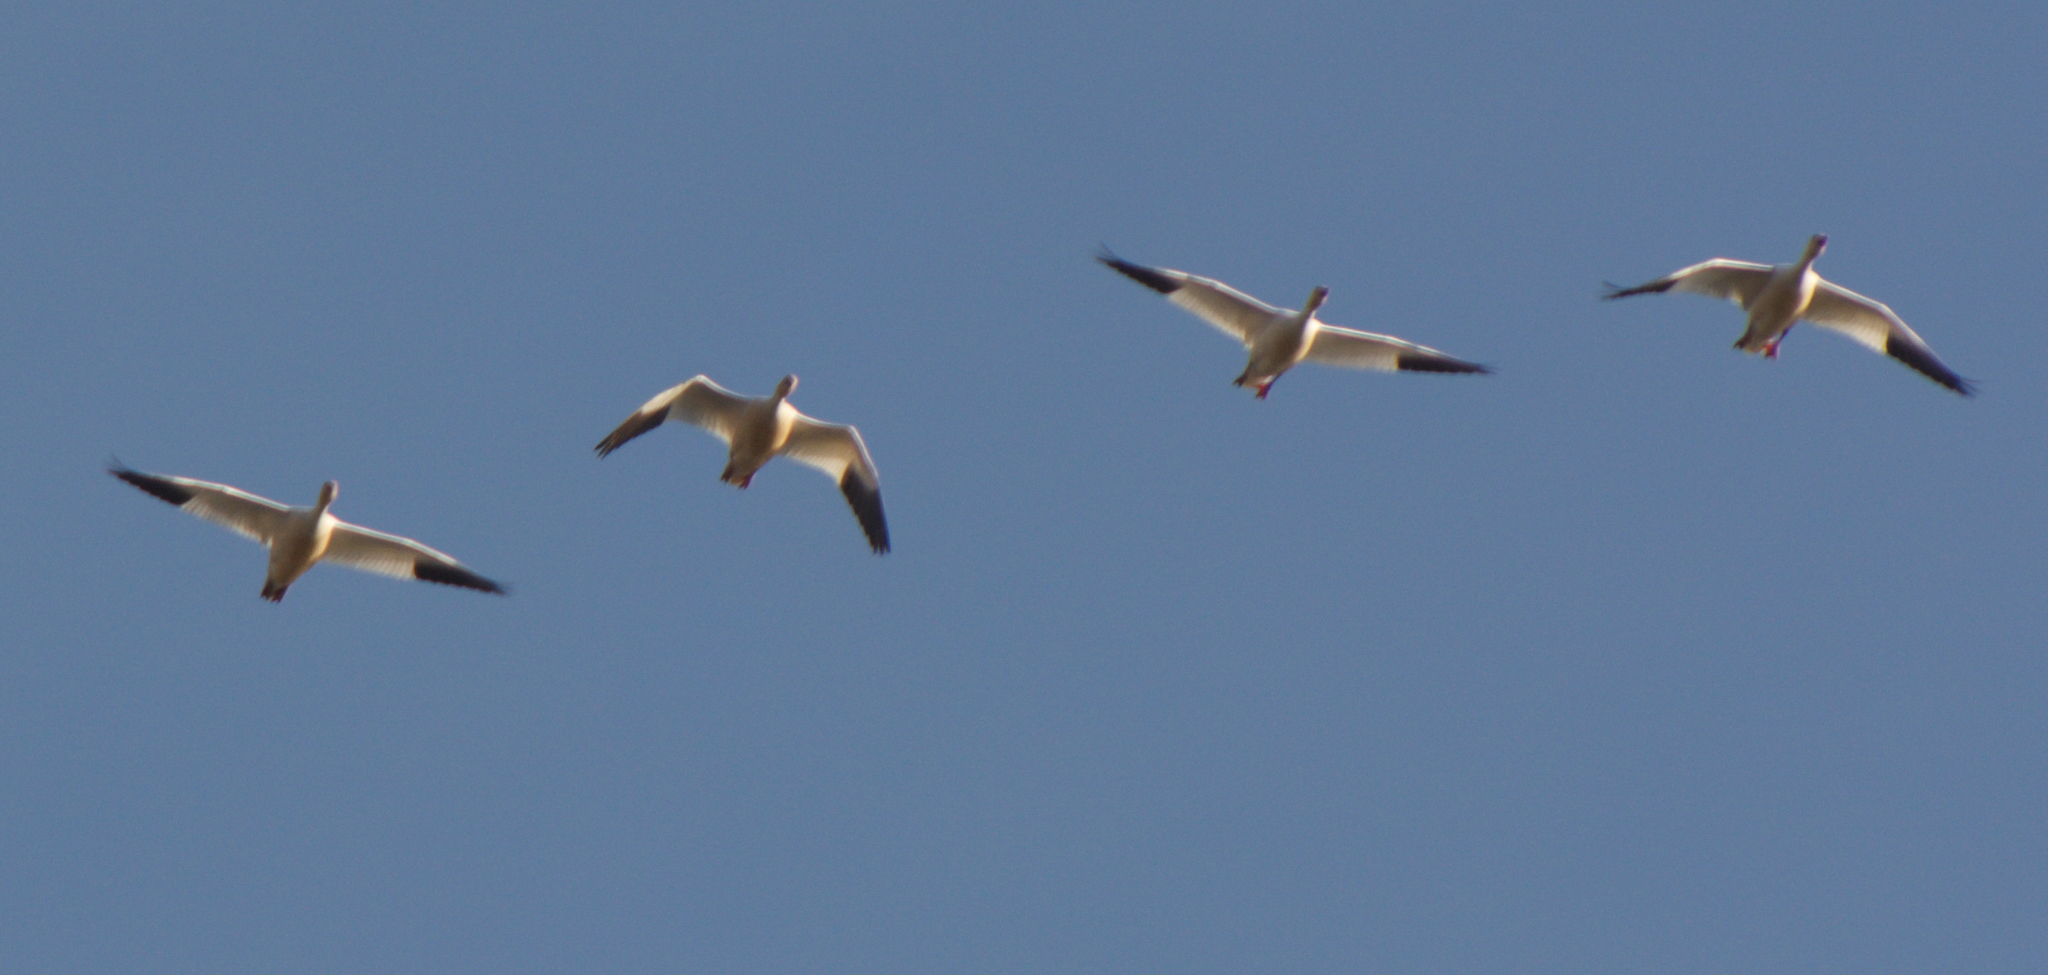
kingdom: Animalia
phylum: Chordata
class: Aves
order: Anseriformes
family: Anatidae
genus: Anser
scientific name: Anser caerulescens
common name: Snow goose
